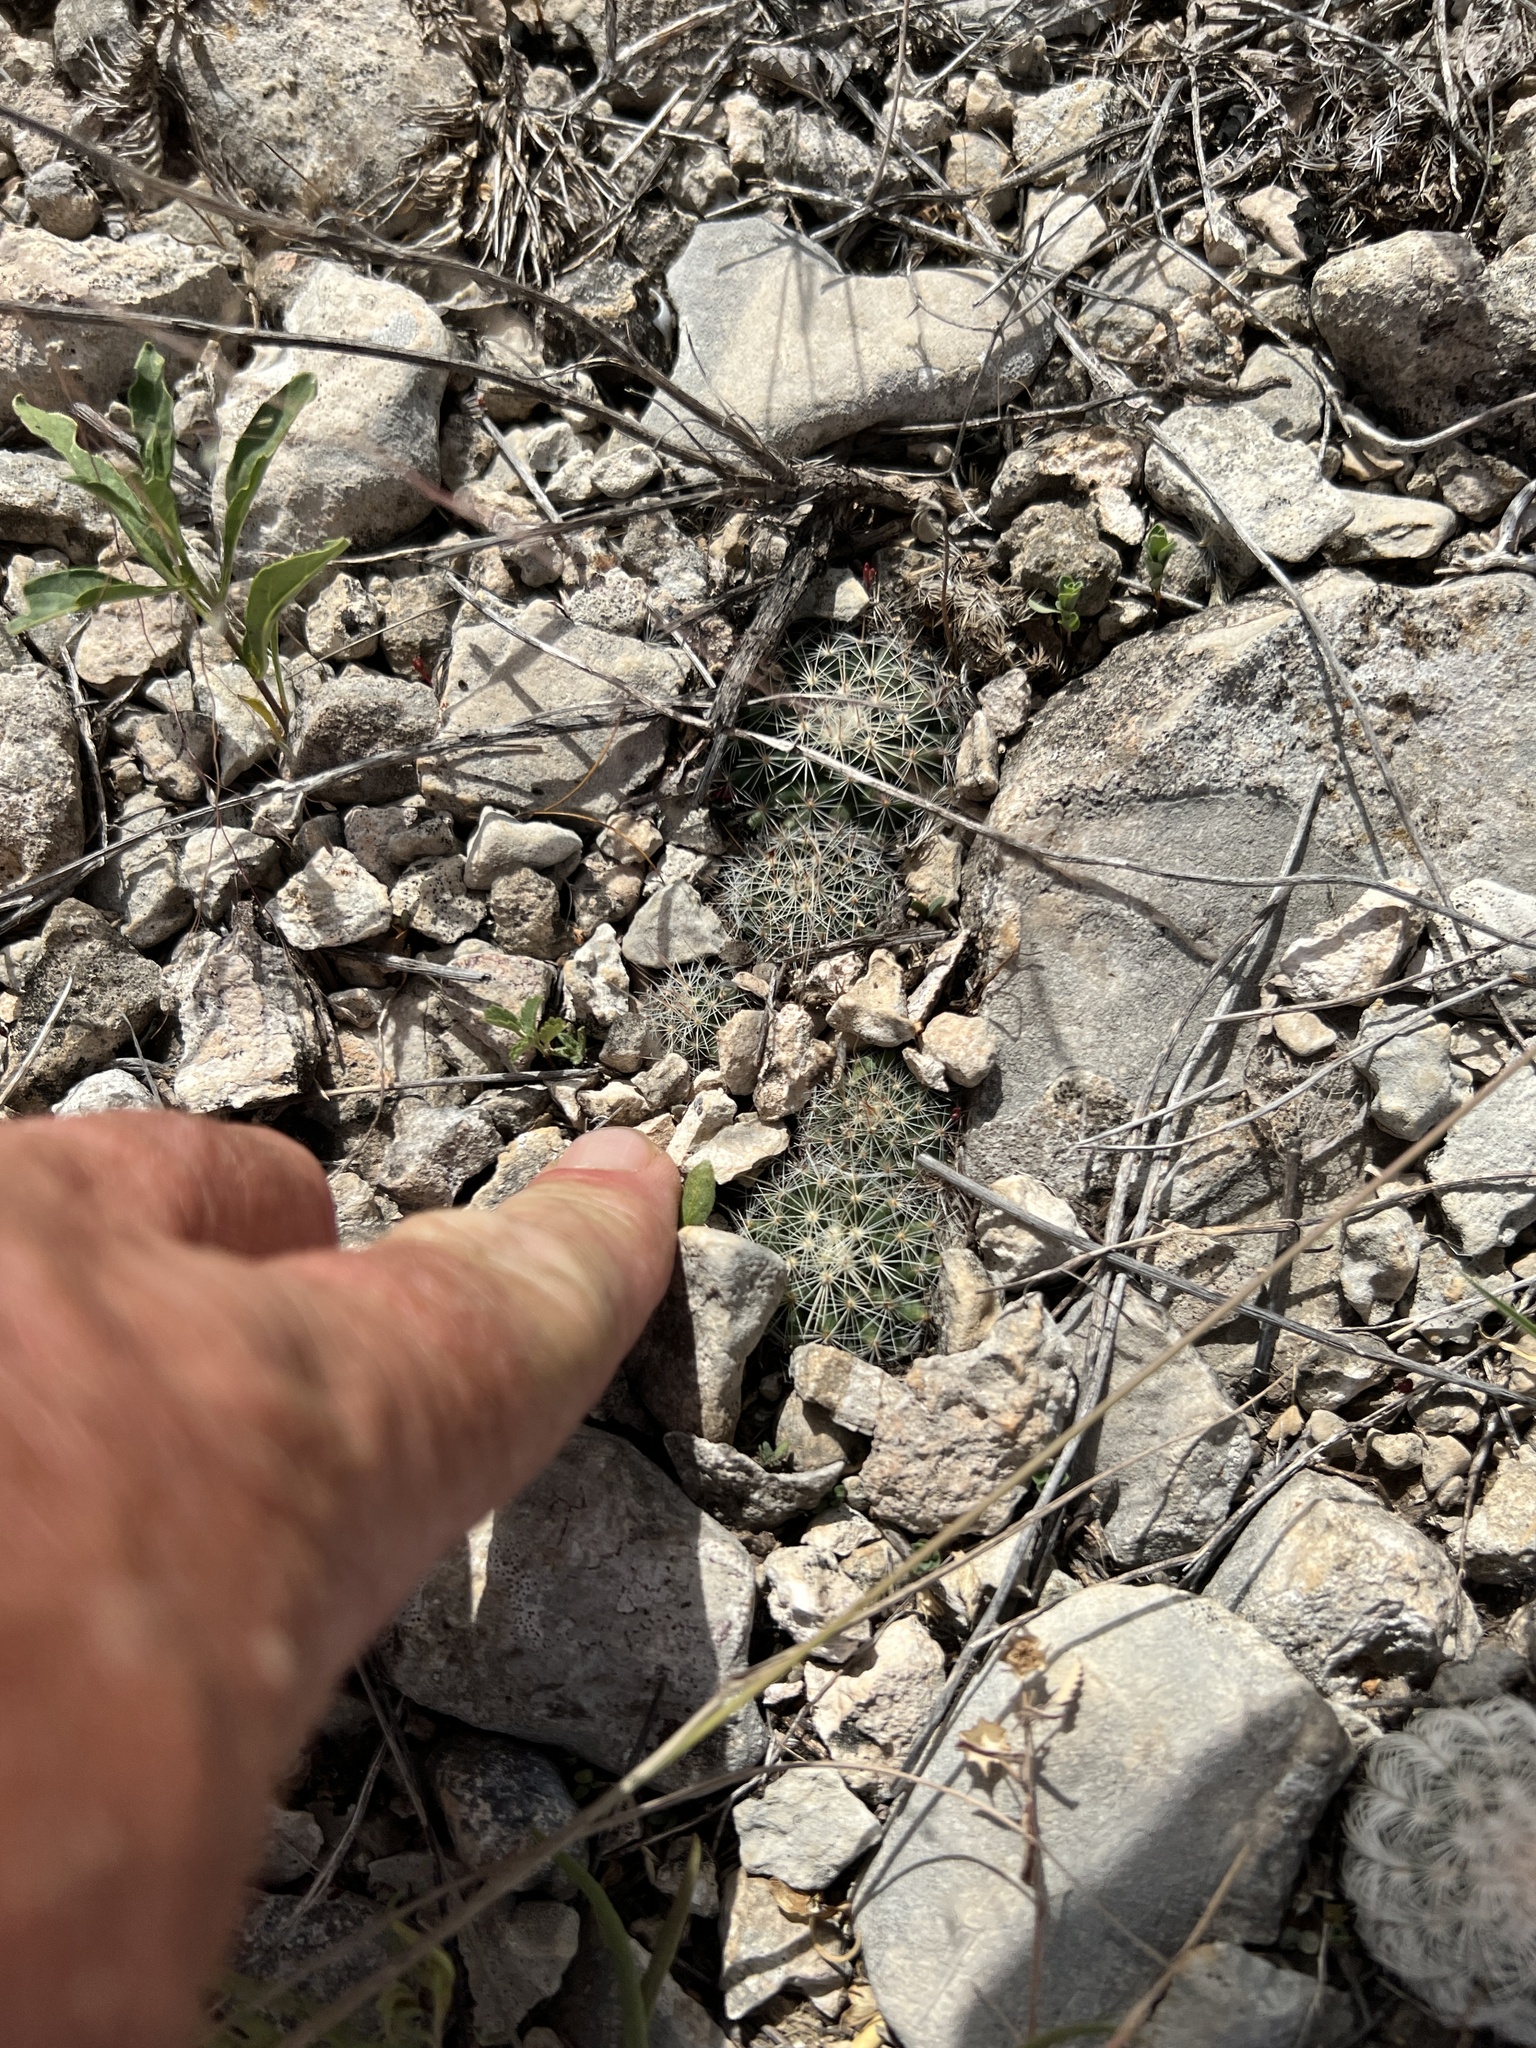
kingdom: Plantae
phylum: Tracheophyta
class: Magnoliopsida
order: Caryophyllales
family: Cactaceae
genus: Mammillaria
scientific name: Mammillaria heyderi
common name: Little nipple cactus
